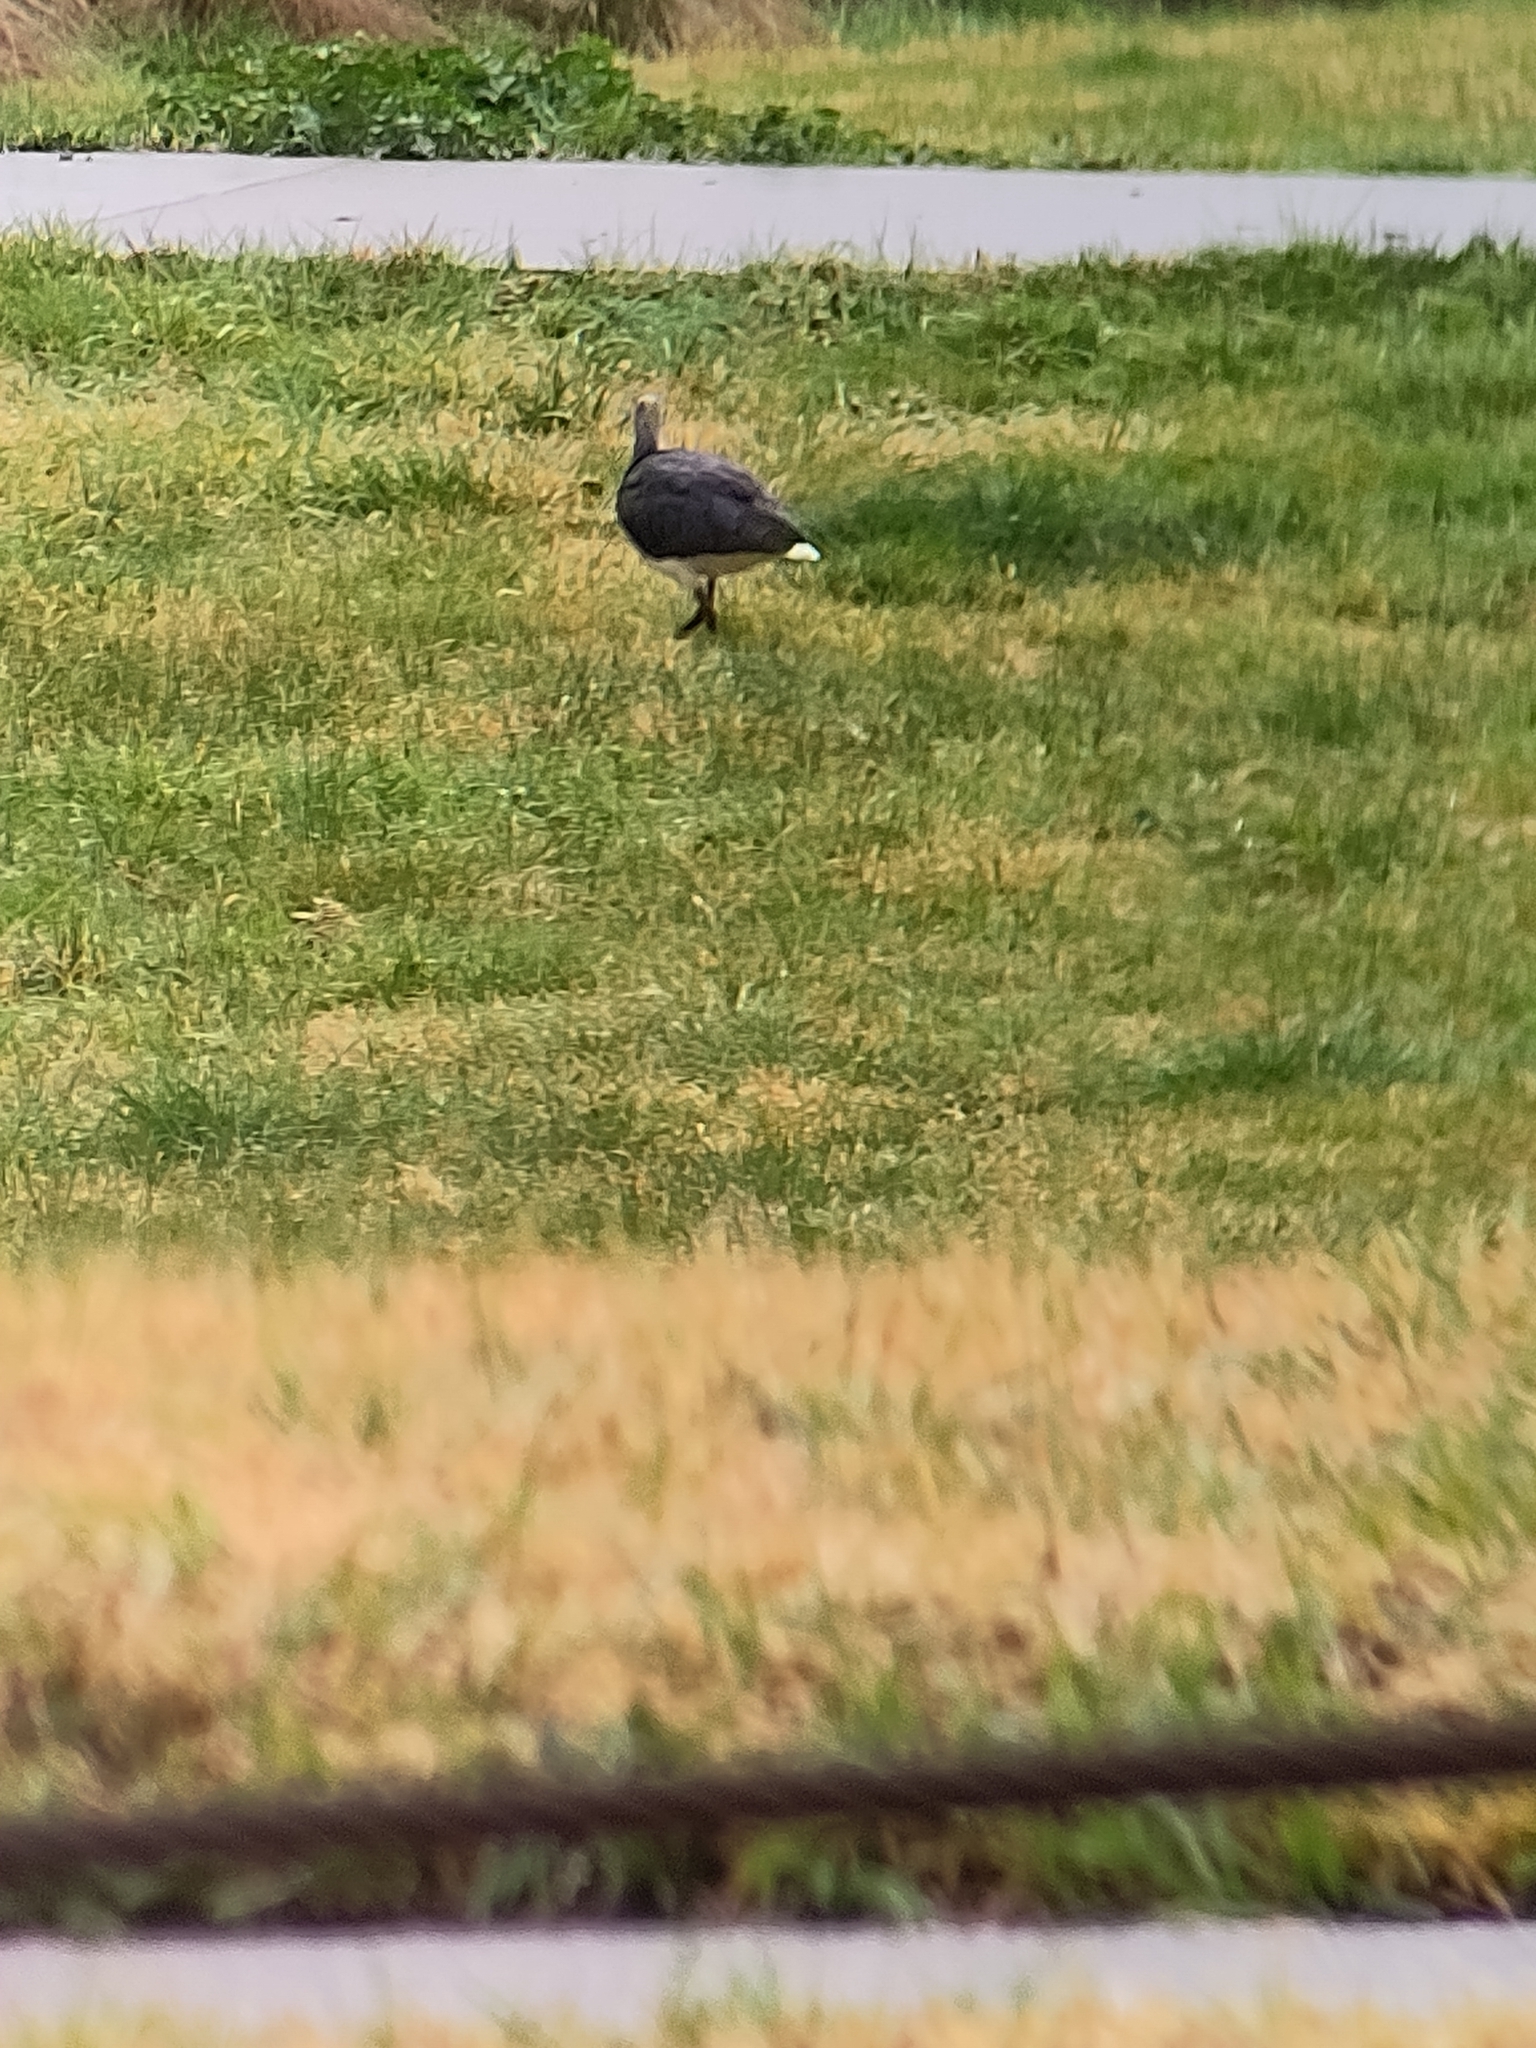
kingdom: Animalia
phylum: Chordata
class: Aves
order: Pelecaniformes
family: Threskiornithidae
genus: Threskiornis
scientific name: Threskiornis spinicollis
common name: Straw-necked ibis
